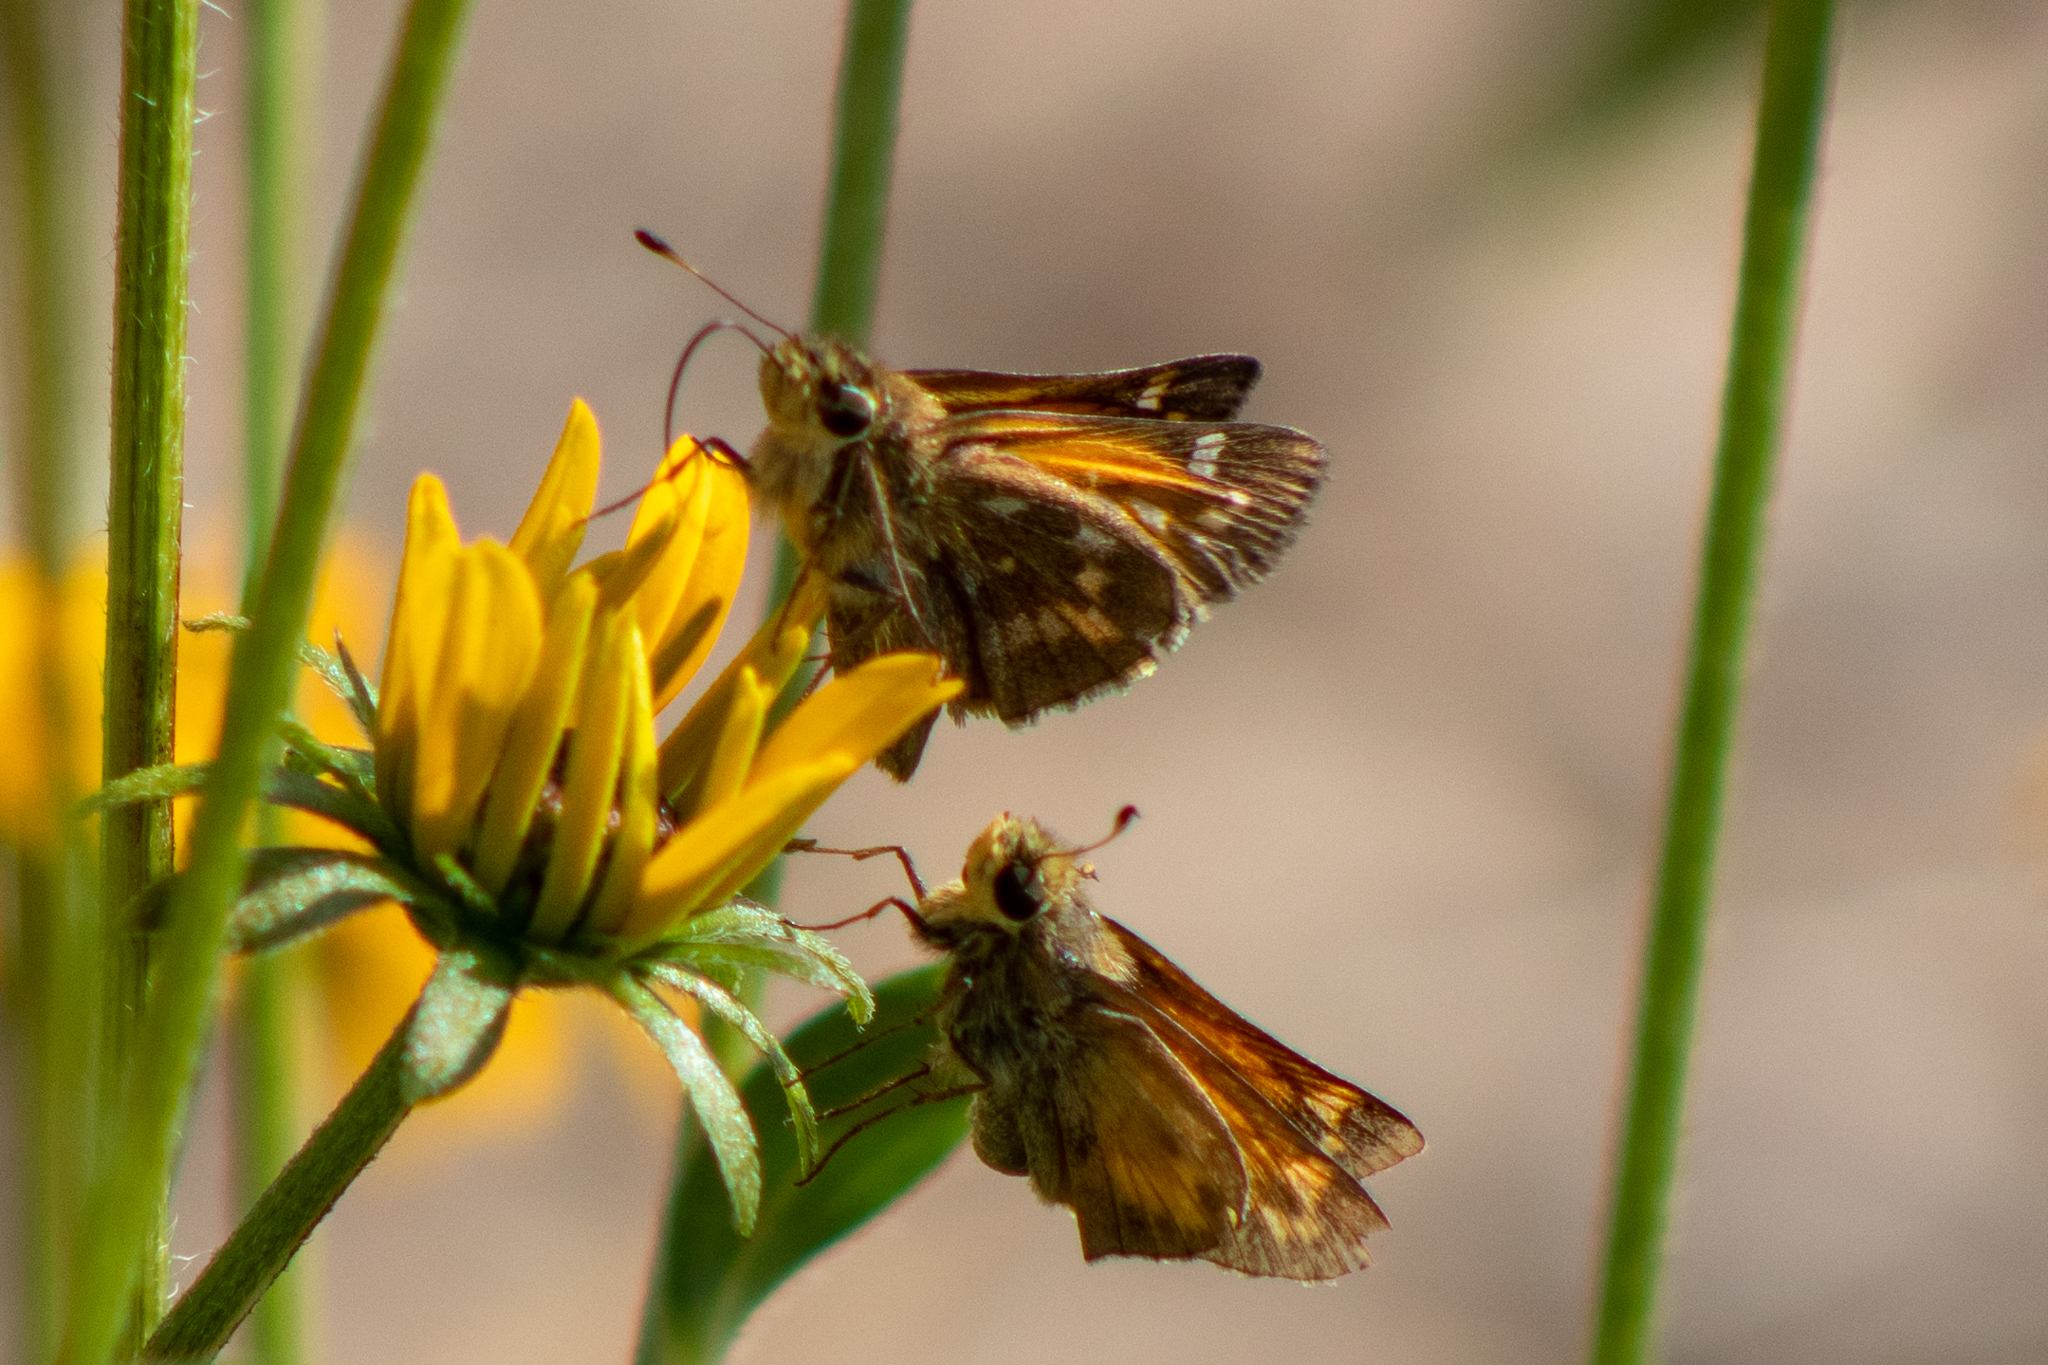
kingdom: Animalia
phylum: Arthropoda
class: Insecta
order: Lepidoptera
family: Hesperiidae
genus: Atalopedes
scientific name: Atalopedes
